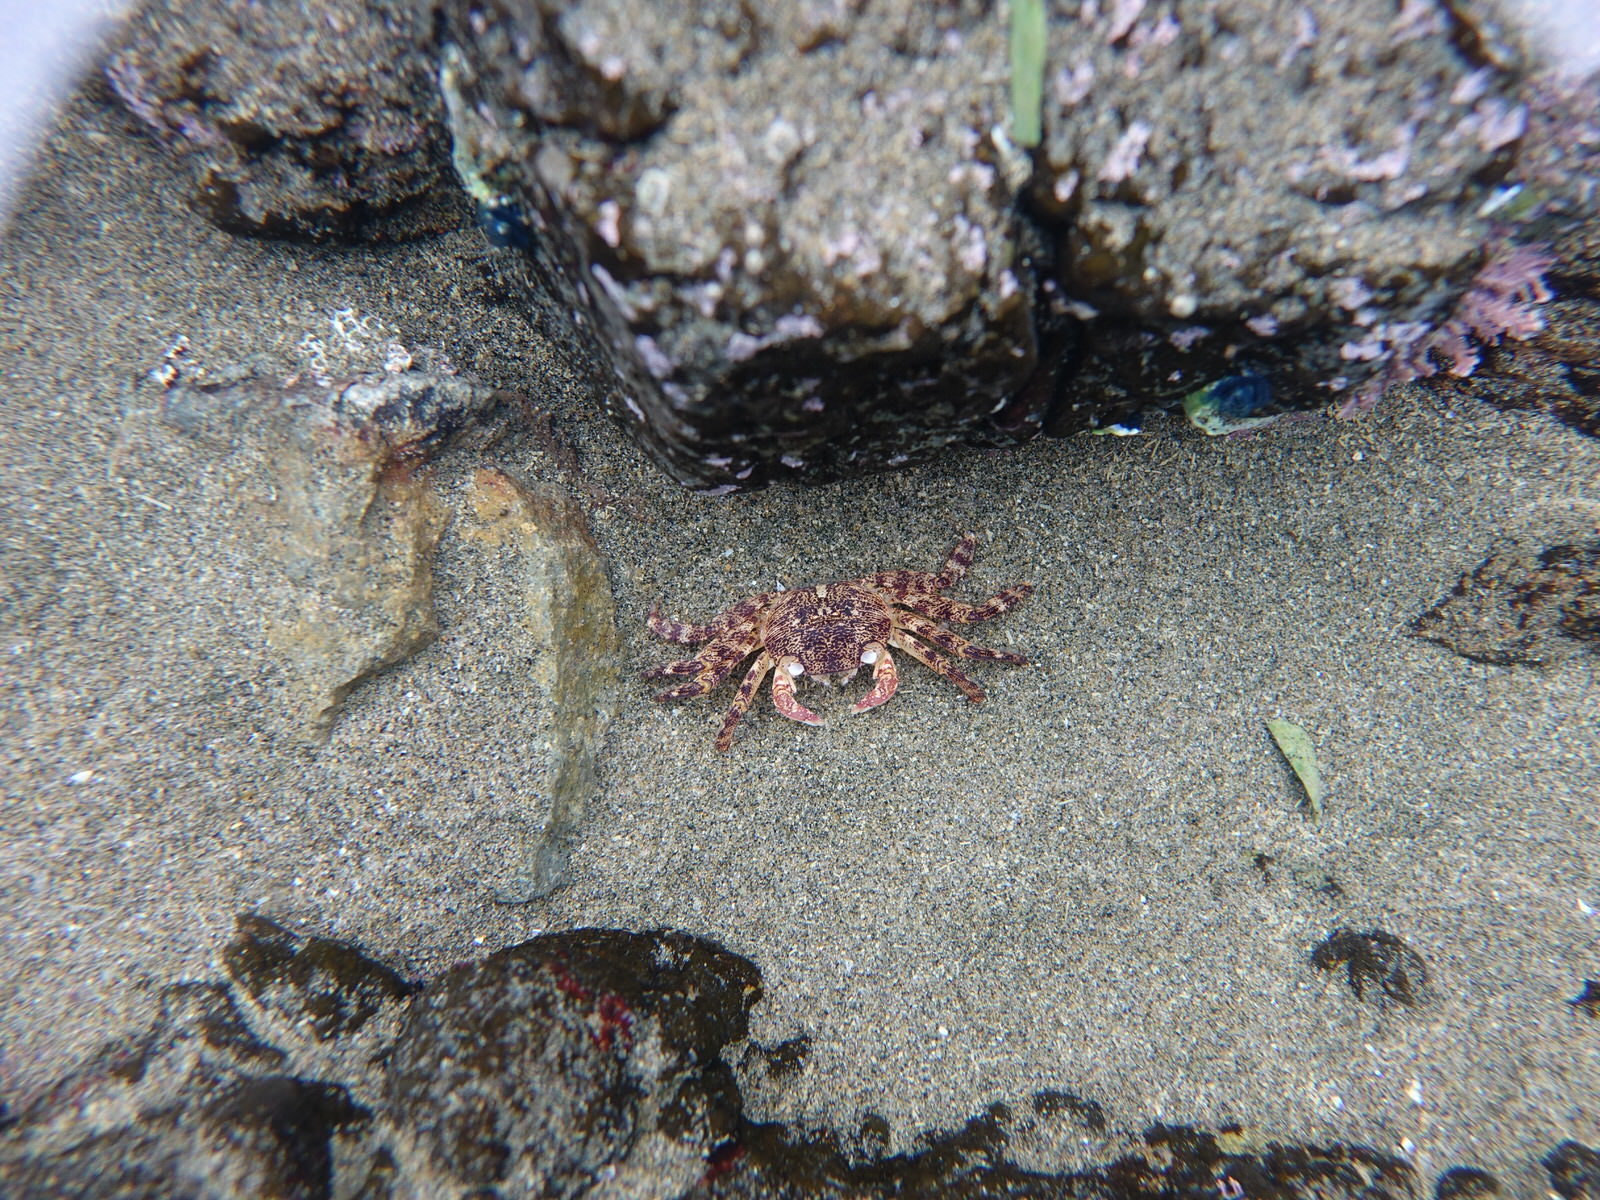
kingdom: Animalia
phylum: Arthropoda
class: Malacostraca
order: Decapoda
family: Grapsidae
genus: Leptograpsus
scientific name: Leptograpsus variegatus
